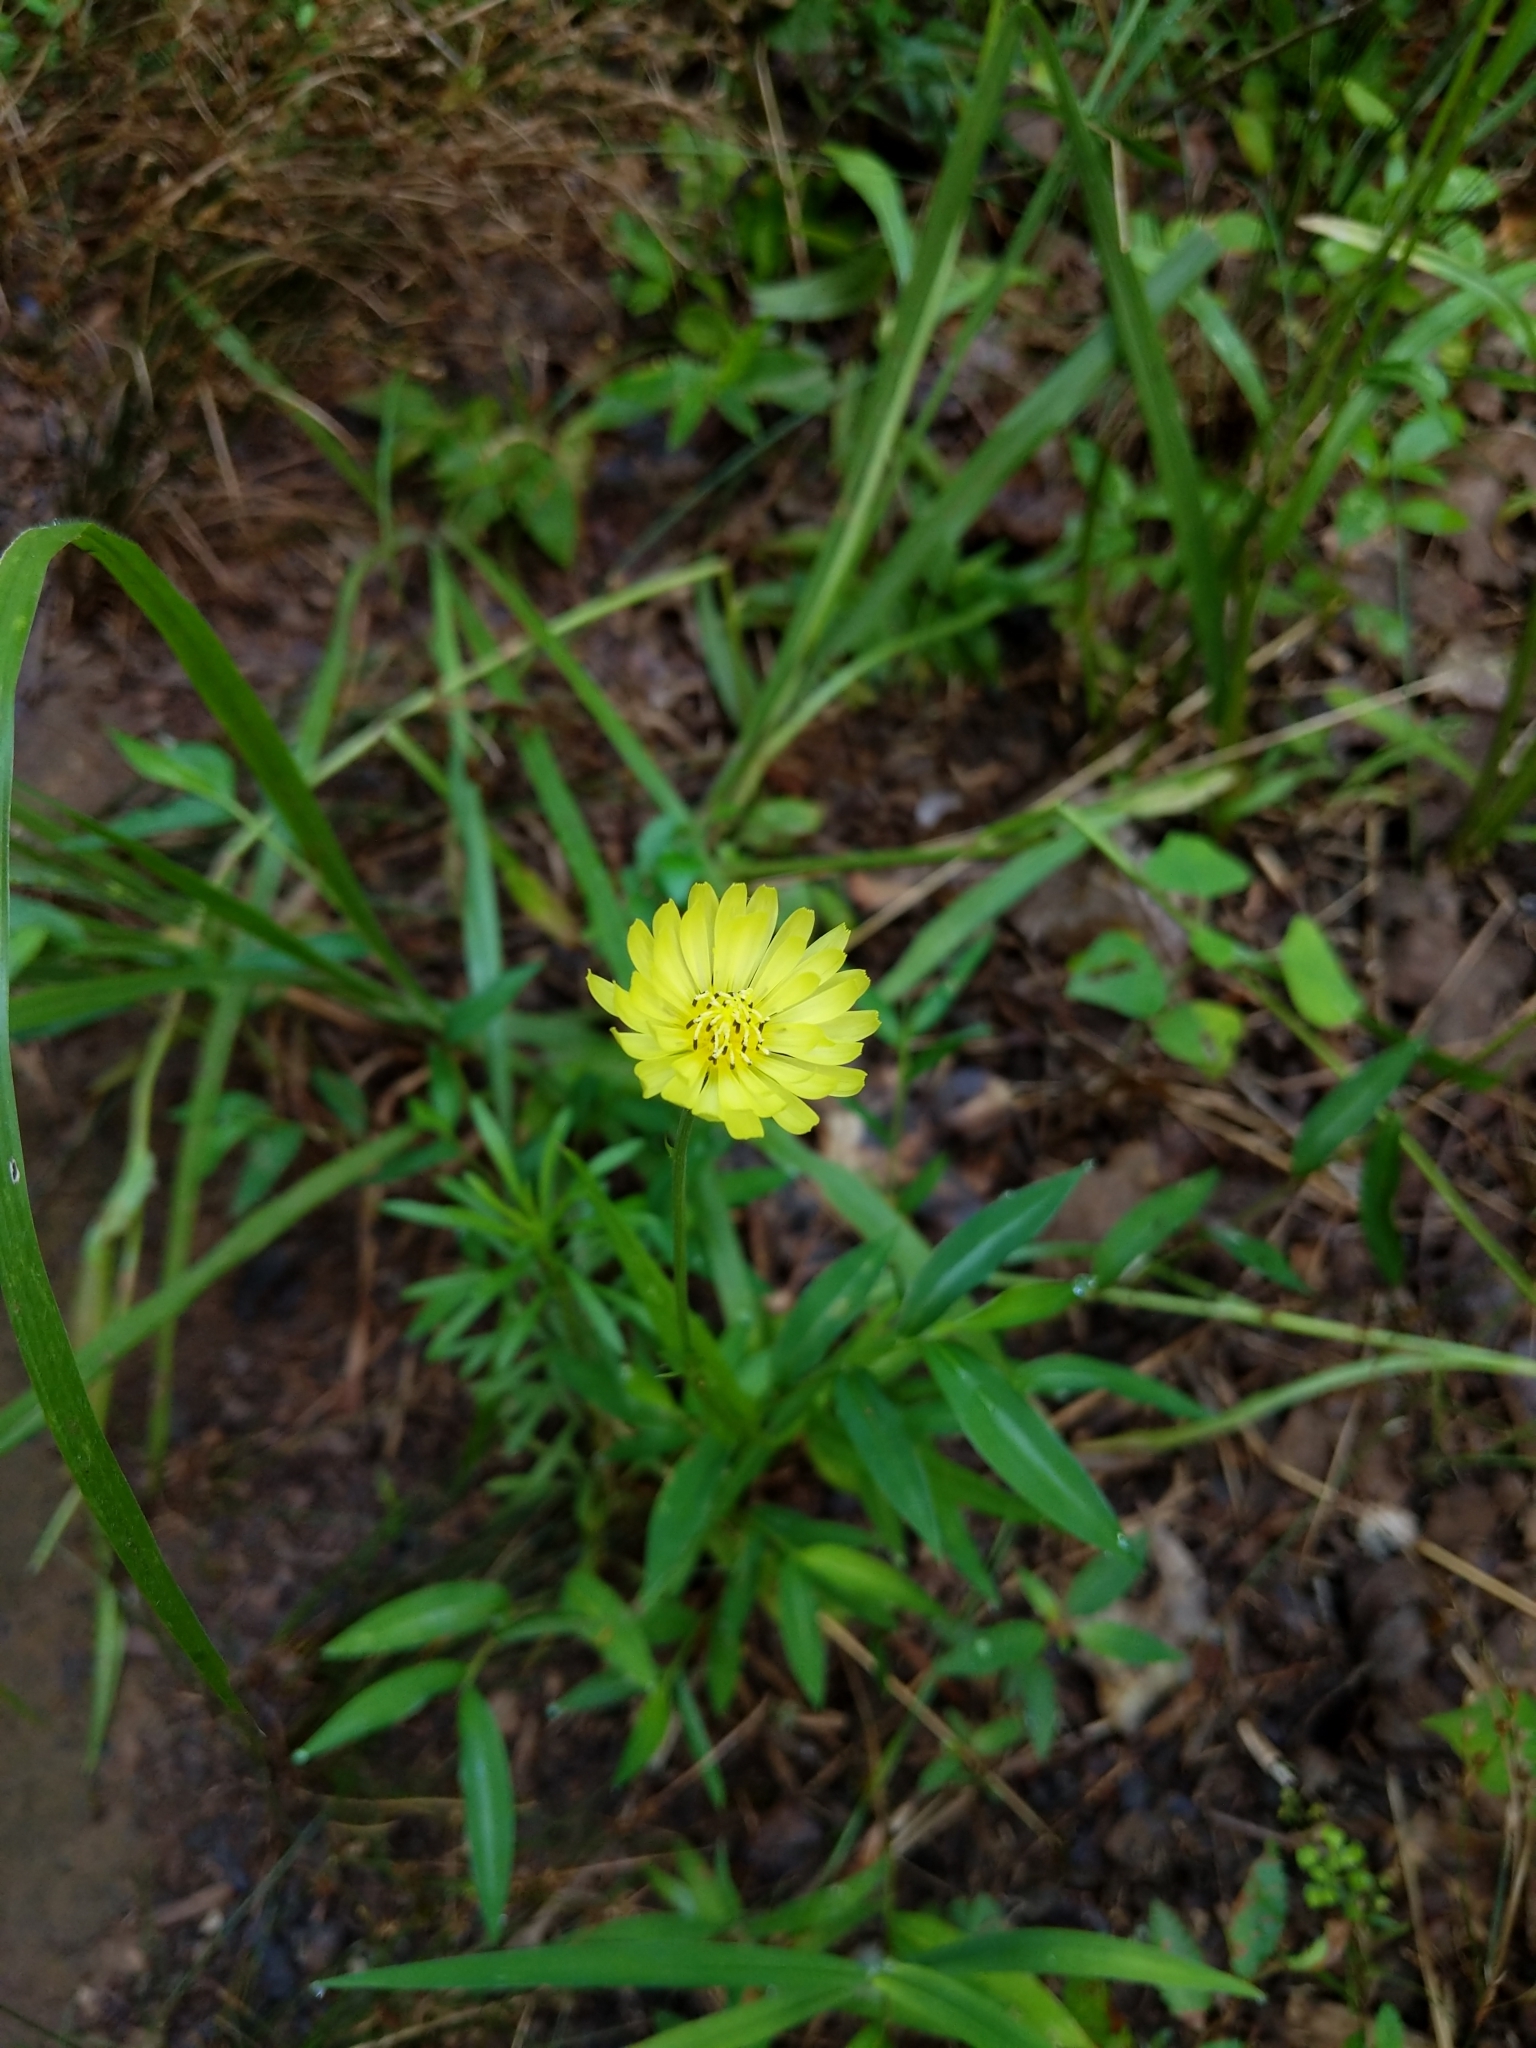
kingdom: Plantae
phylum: Tracheophyta
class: Magnoliopsida
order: Asterales
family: Asteraceae
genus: Pyrrhopappus
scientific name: Pyrrhopappus carolinianus
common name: Carolina desert-chicory
